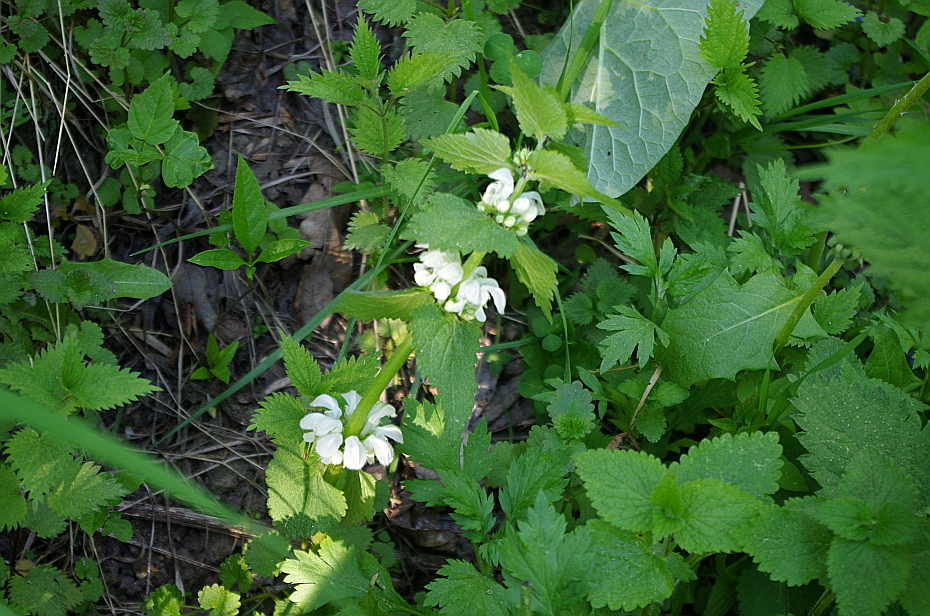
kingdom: Plantae
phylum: Tracheophyta
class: Magnoliopsida
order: Lamiales
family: Lamiaceae
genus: Lamium
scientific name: Lamium album
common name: White dead-nettle
